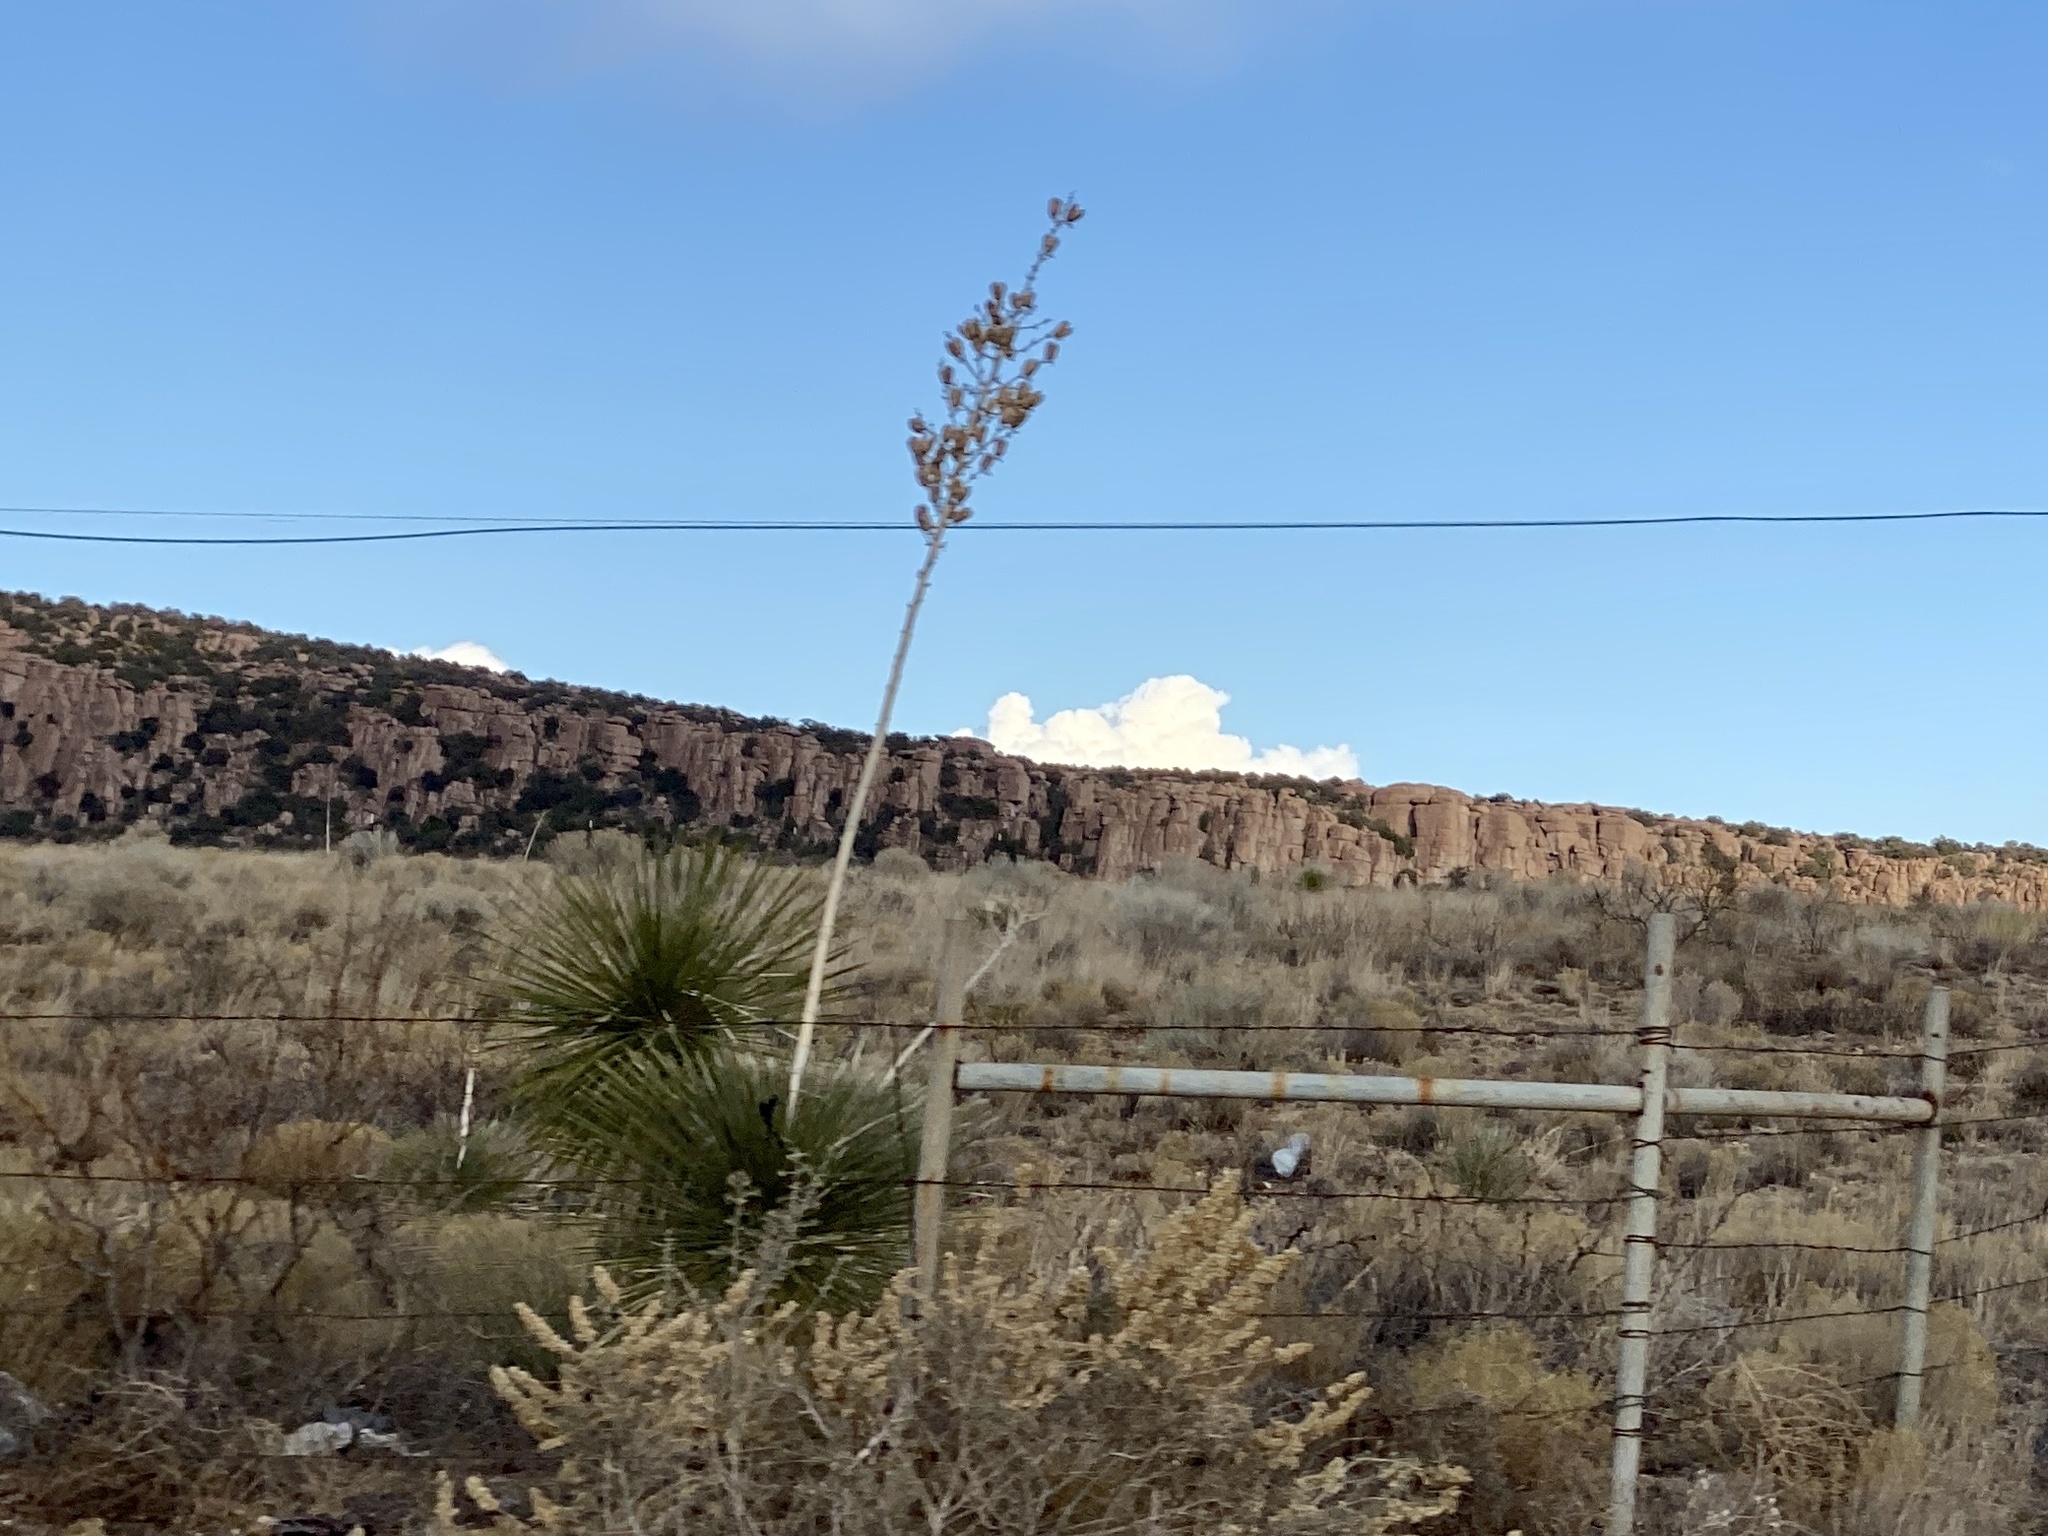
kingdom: Plantae
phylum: Tracheophyta
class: Liliopsida
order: Asparagales
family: Asparagaceae
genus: Yucca
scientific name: Yucca elata
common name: Palmella
